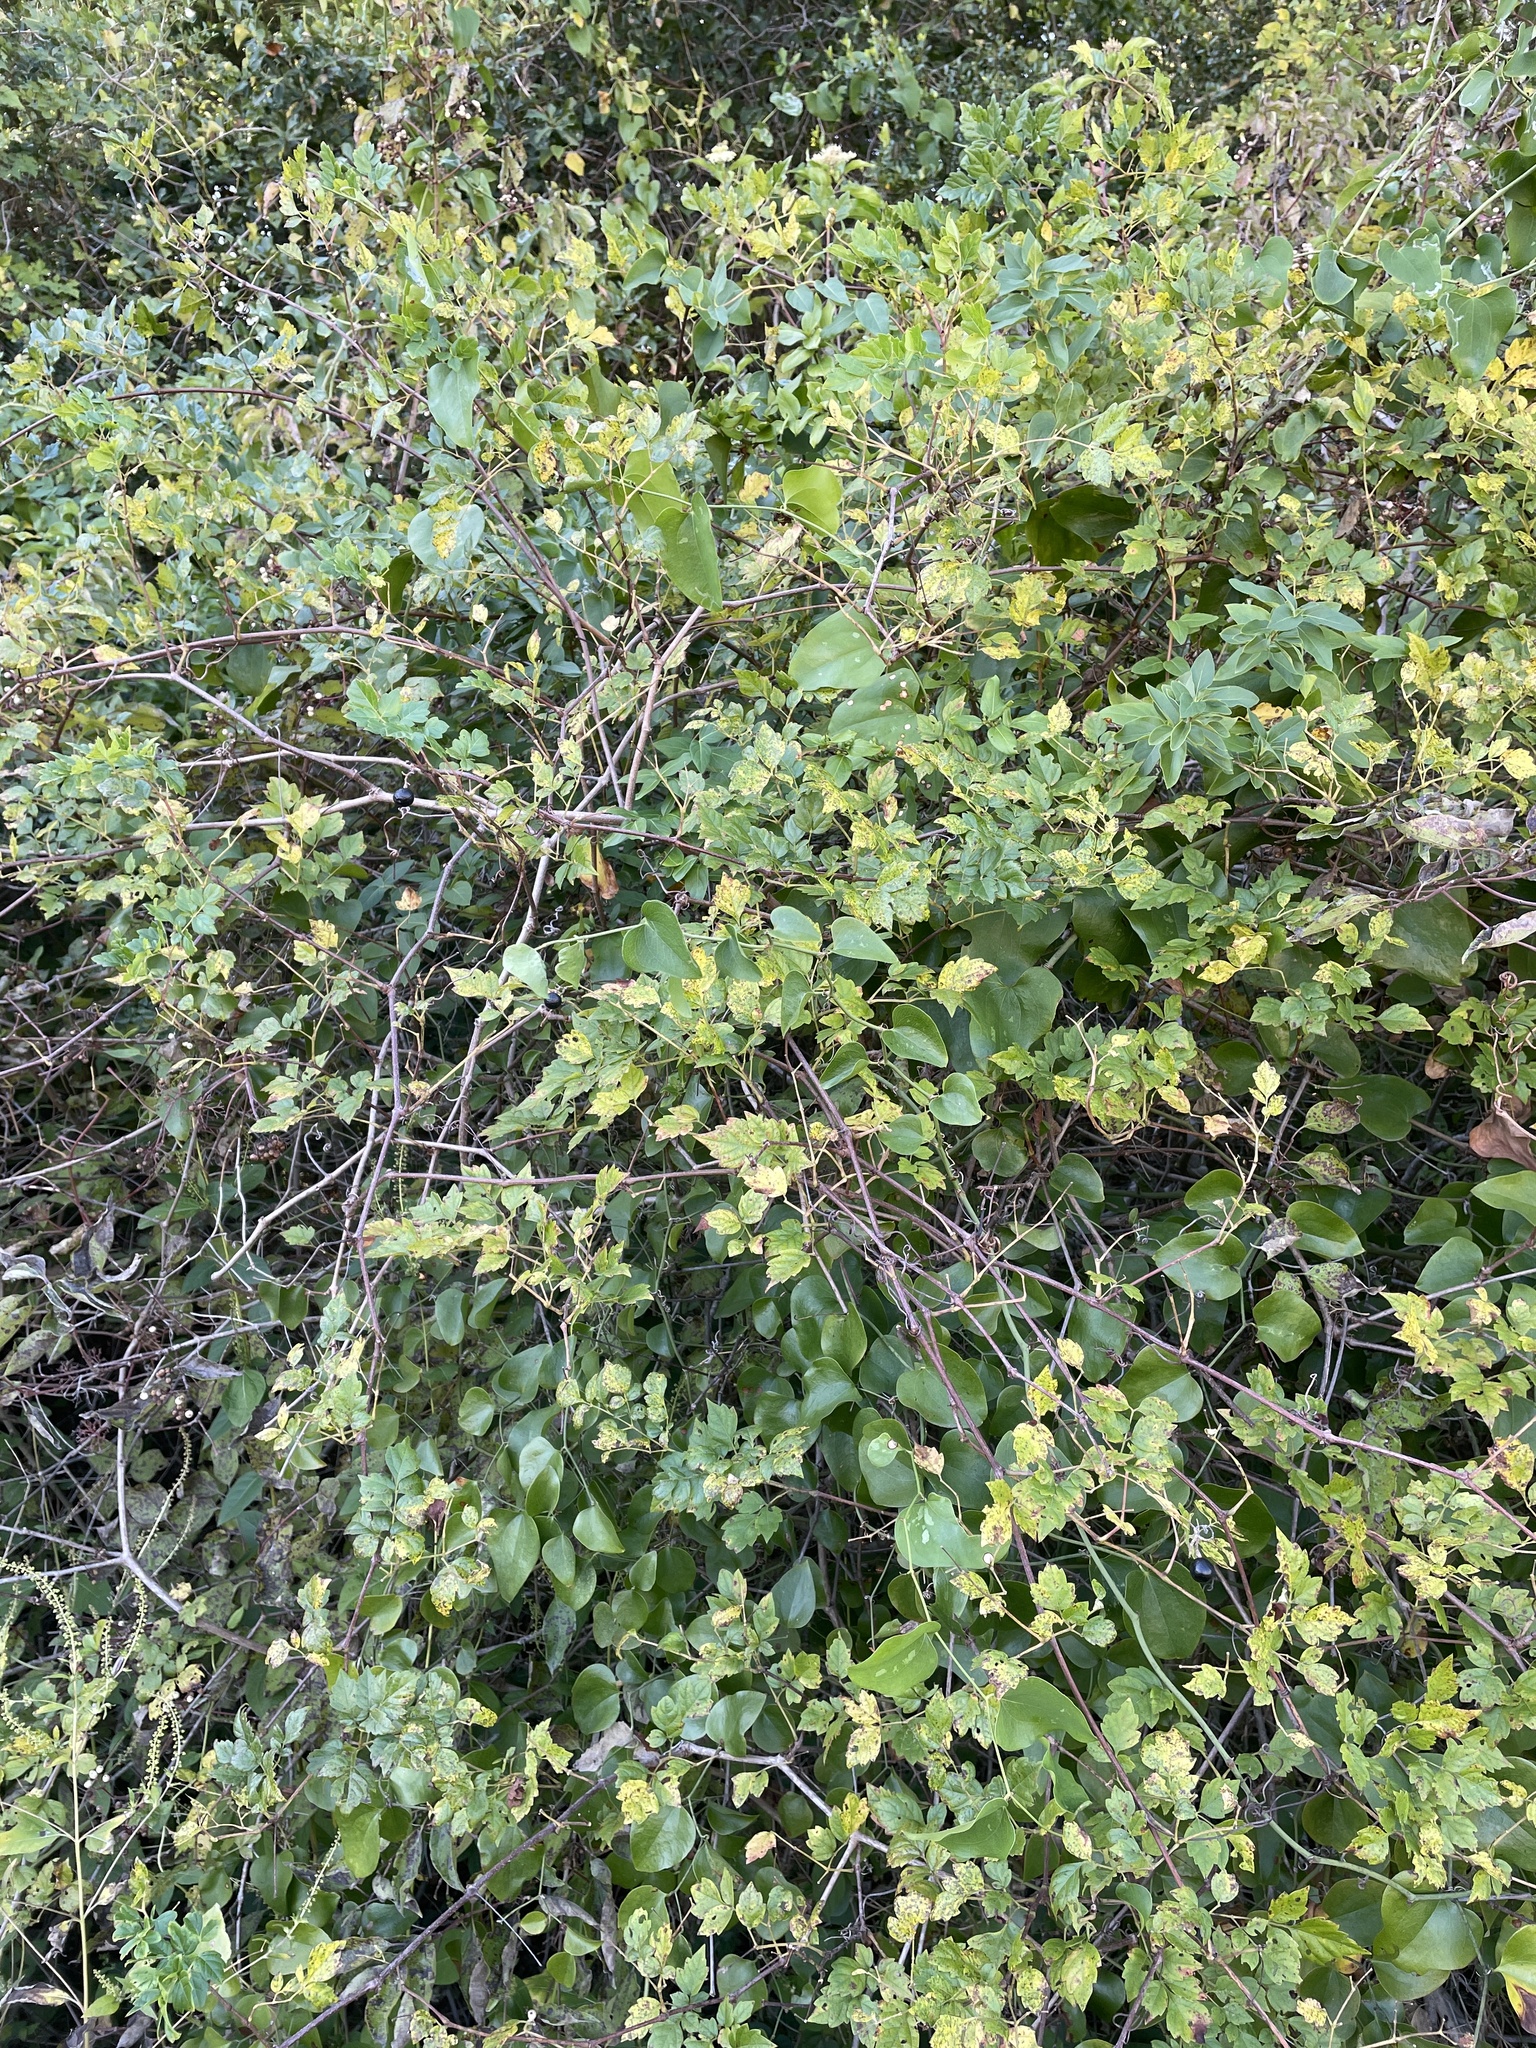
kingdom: Plantae
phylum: Tracheophyta
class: Magnoliopsida
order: Vitales
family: Vitaceae
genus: Nekemias
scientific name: Nekemias arborea
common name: Peppervine
